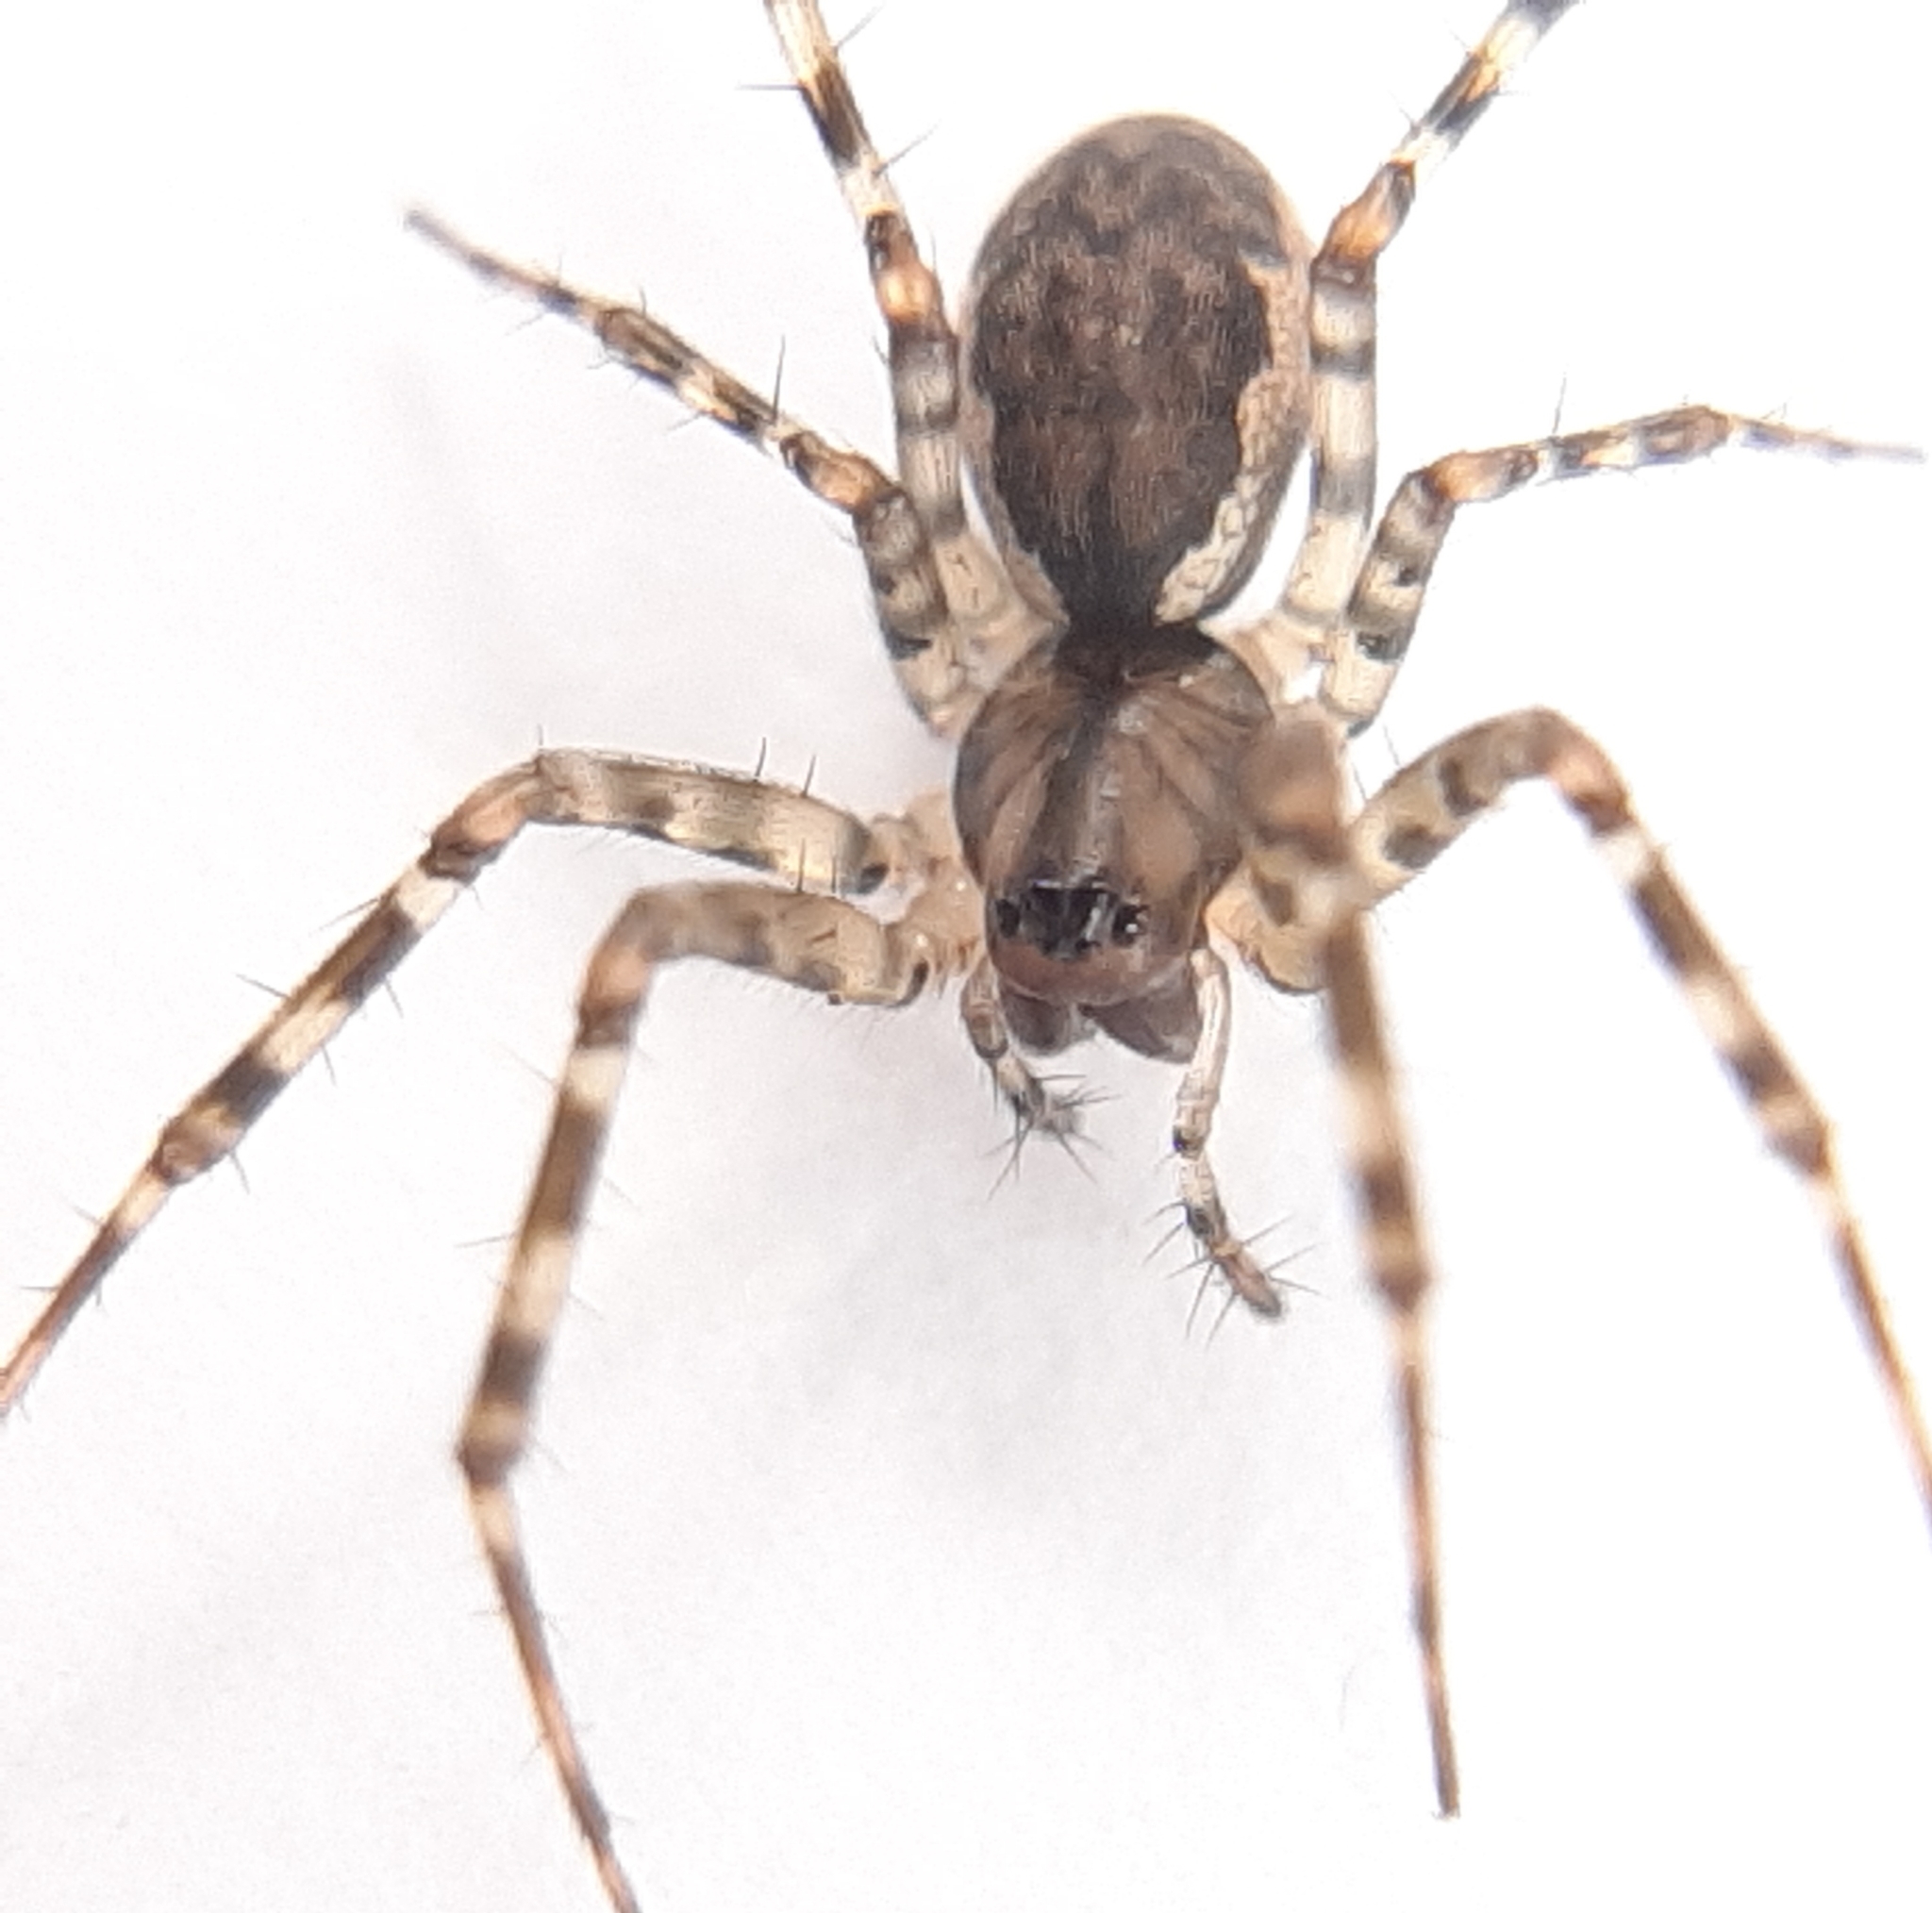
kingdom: Animalia
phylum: Arthropoda
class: Arachnida
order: Araneae
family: Linyphiidae
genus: Neriene
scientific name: Neriene montana
